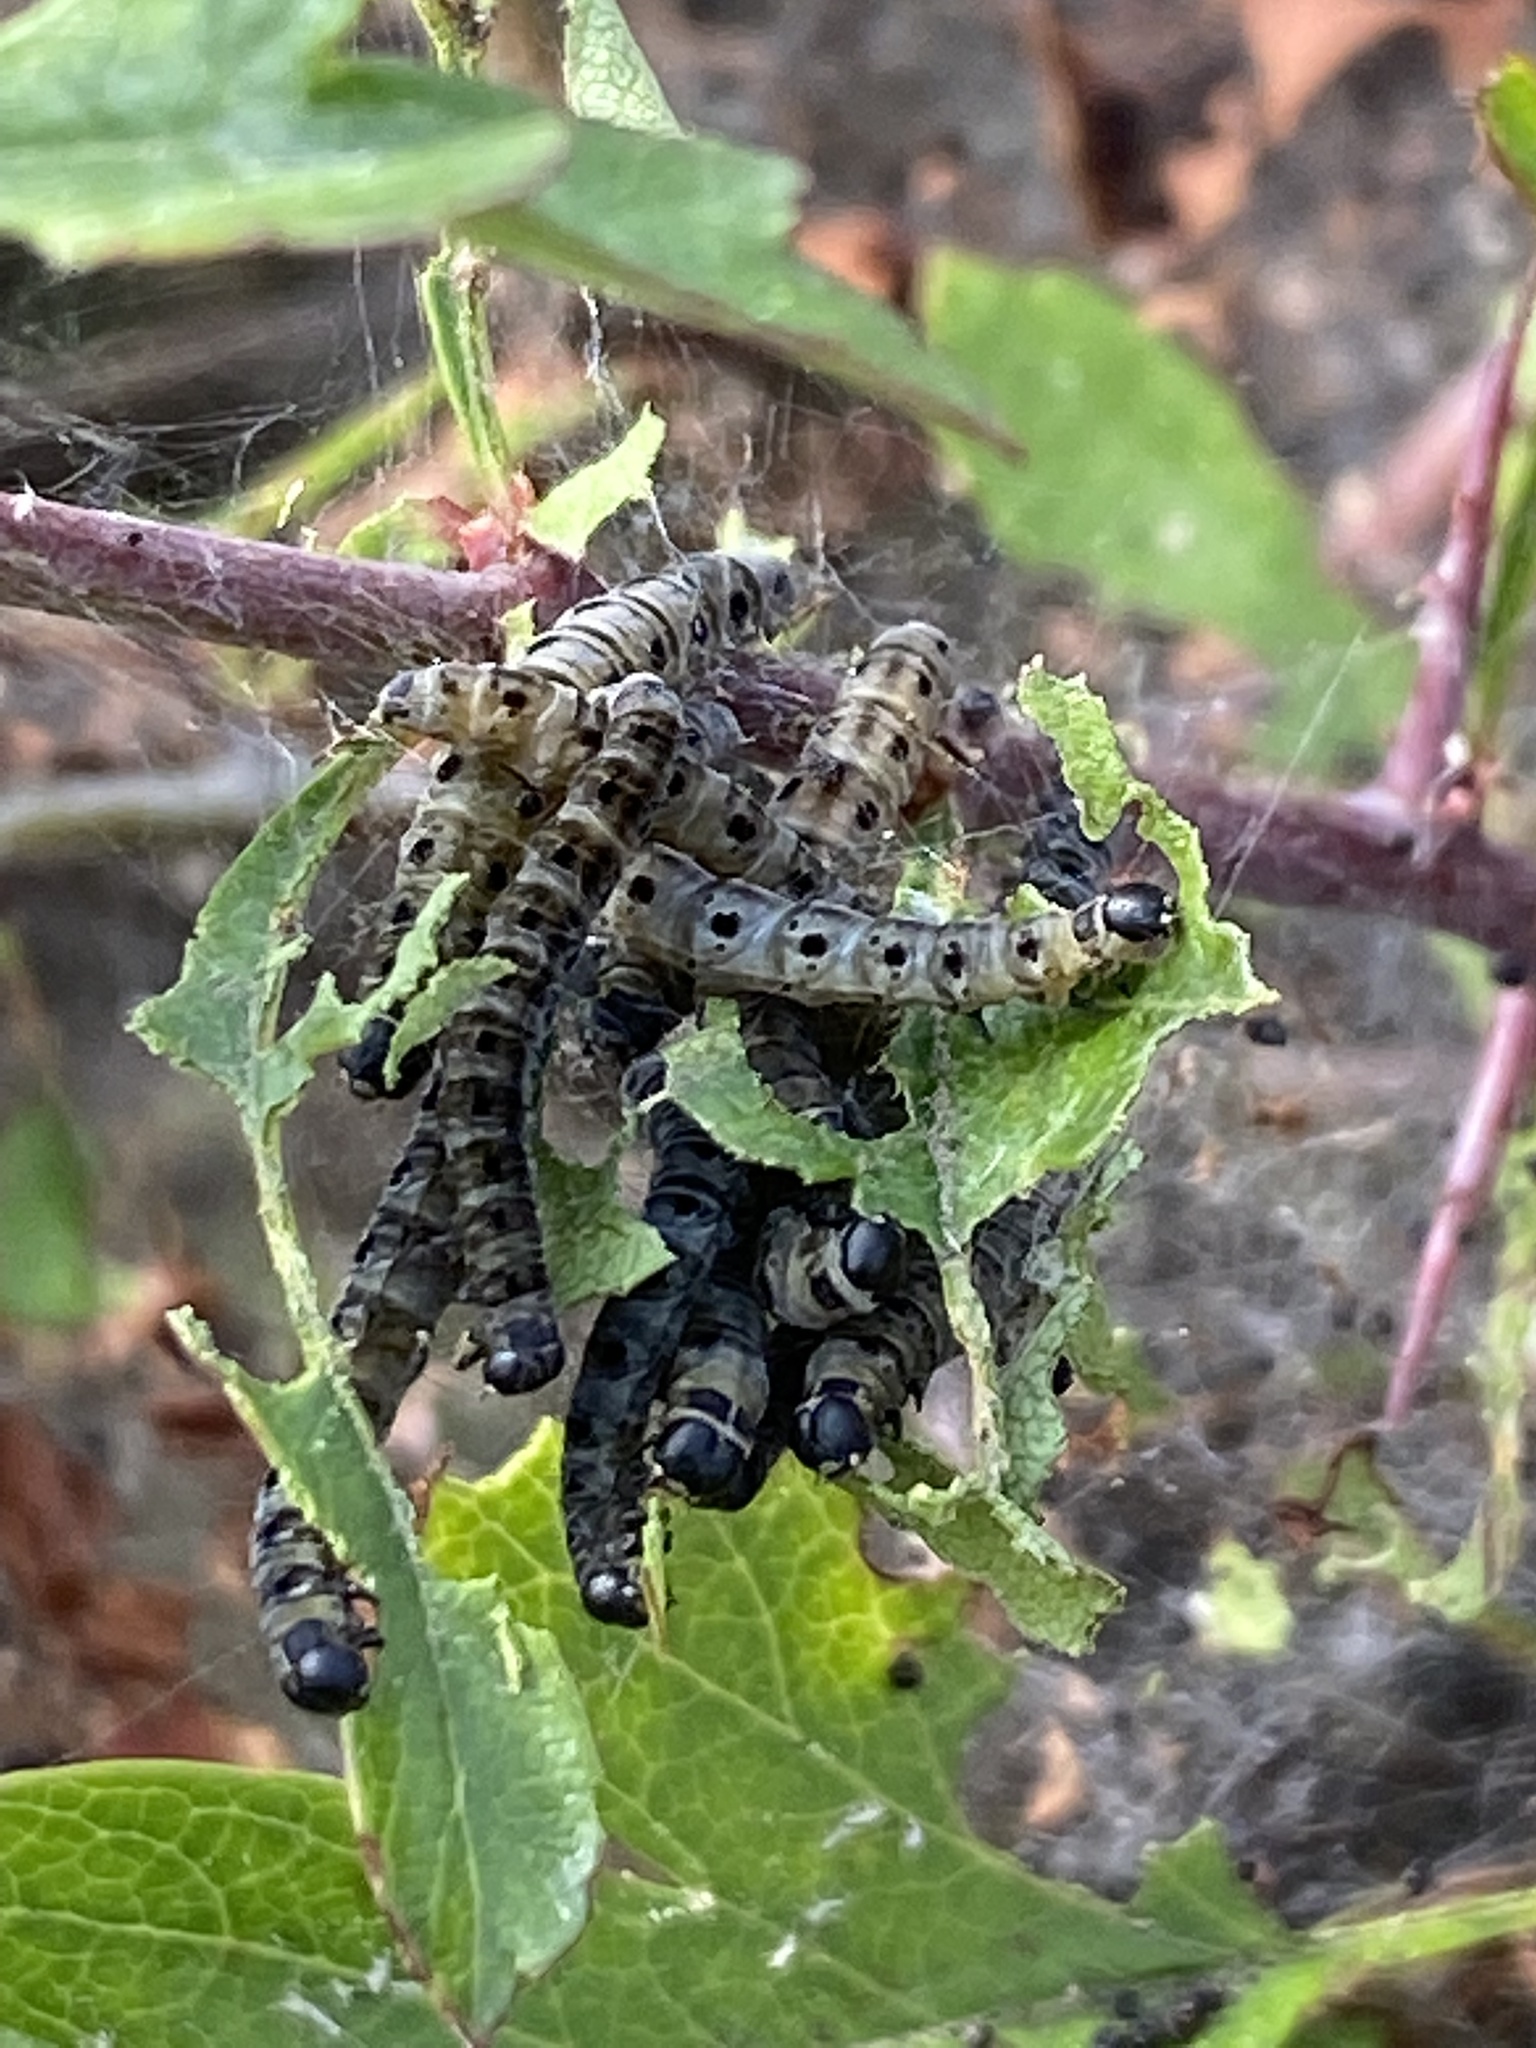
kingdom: Animalia
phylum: Arthropoda
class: Insecta
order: Lepidoptera
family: Yponomeutidae
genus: Yponomeuta
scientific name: Yponomeuta padella
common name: Orchard ermine
